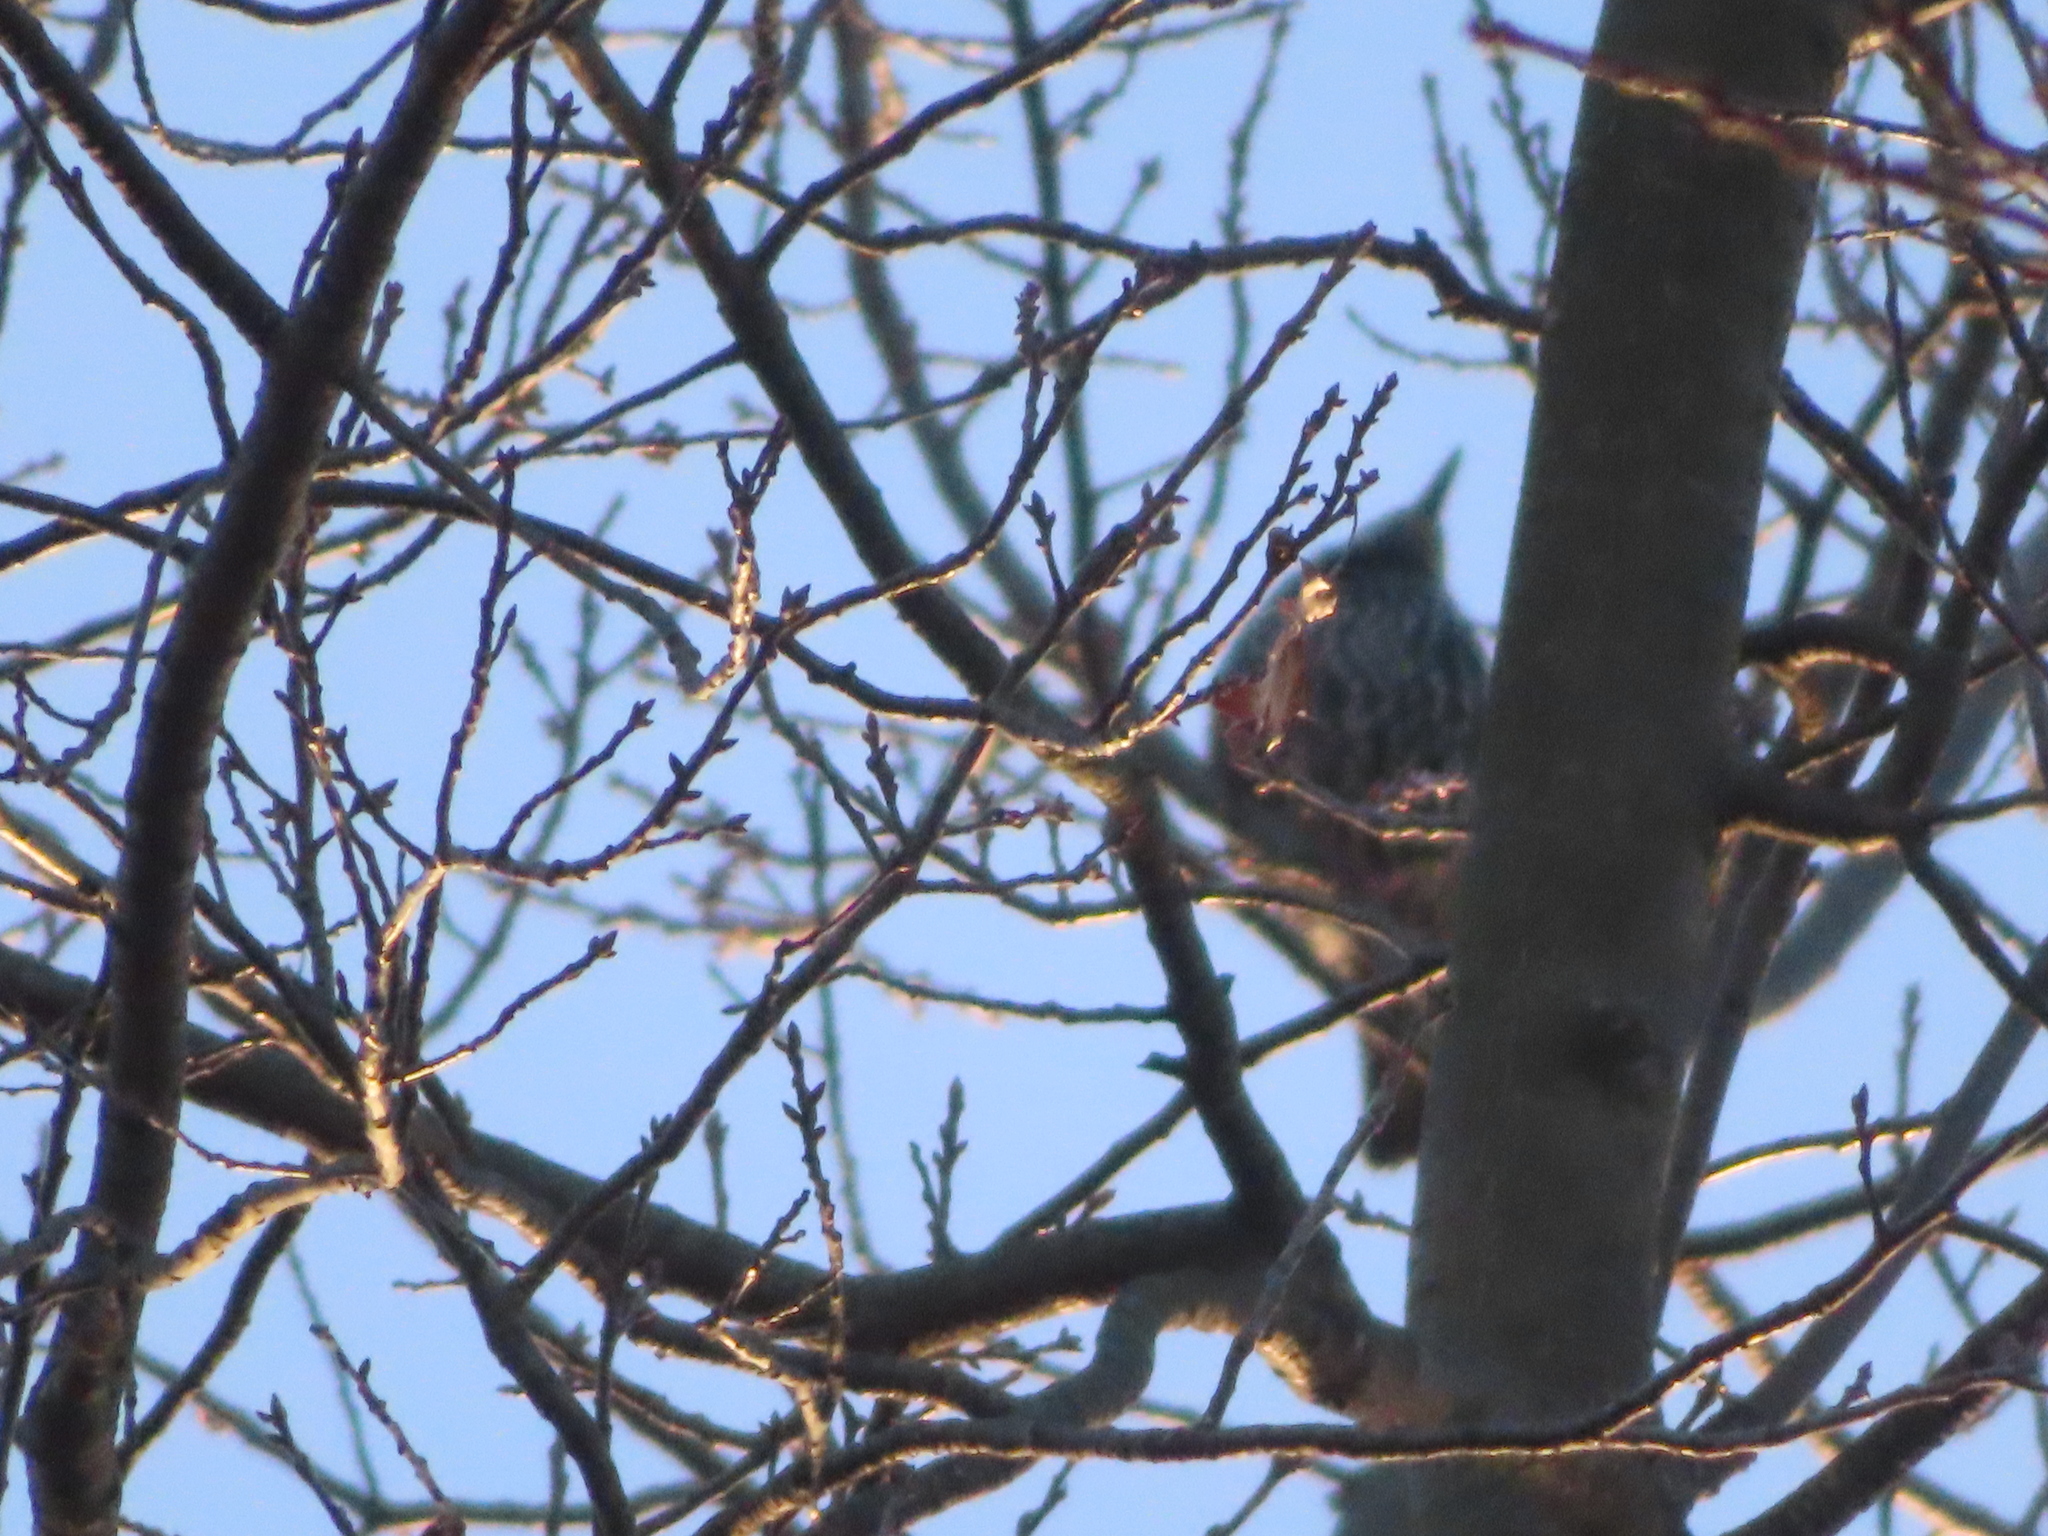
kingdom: Animalia
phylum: Chordata
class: Aves
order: Passeriformes
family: Sturnidae
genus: Sturnus
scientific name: Sturnus vulgaris
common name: Common starling
